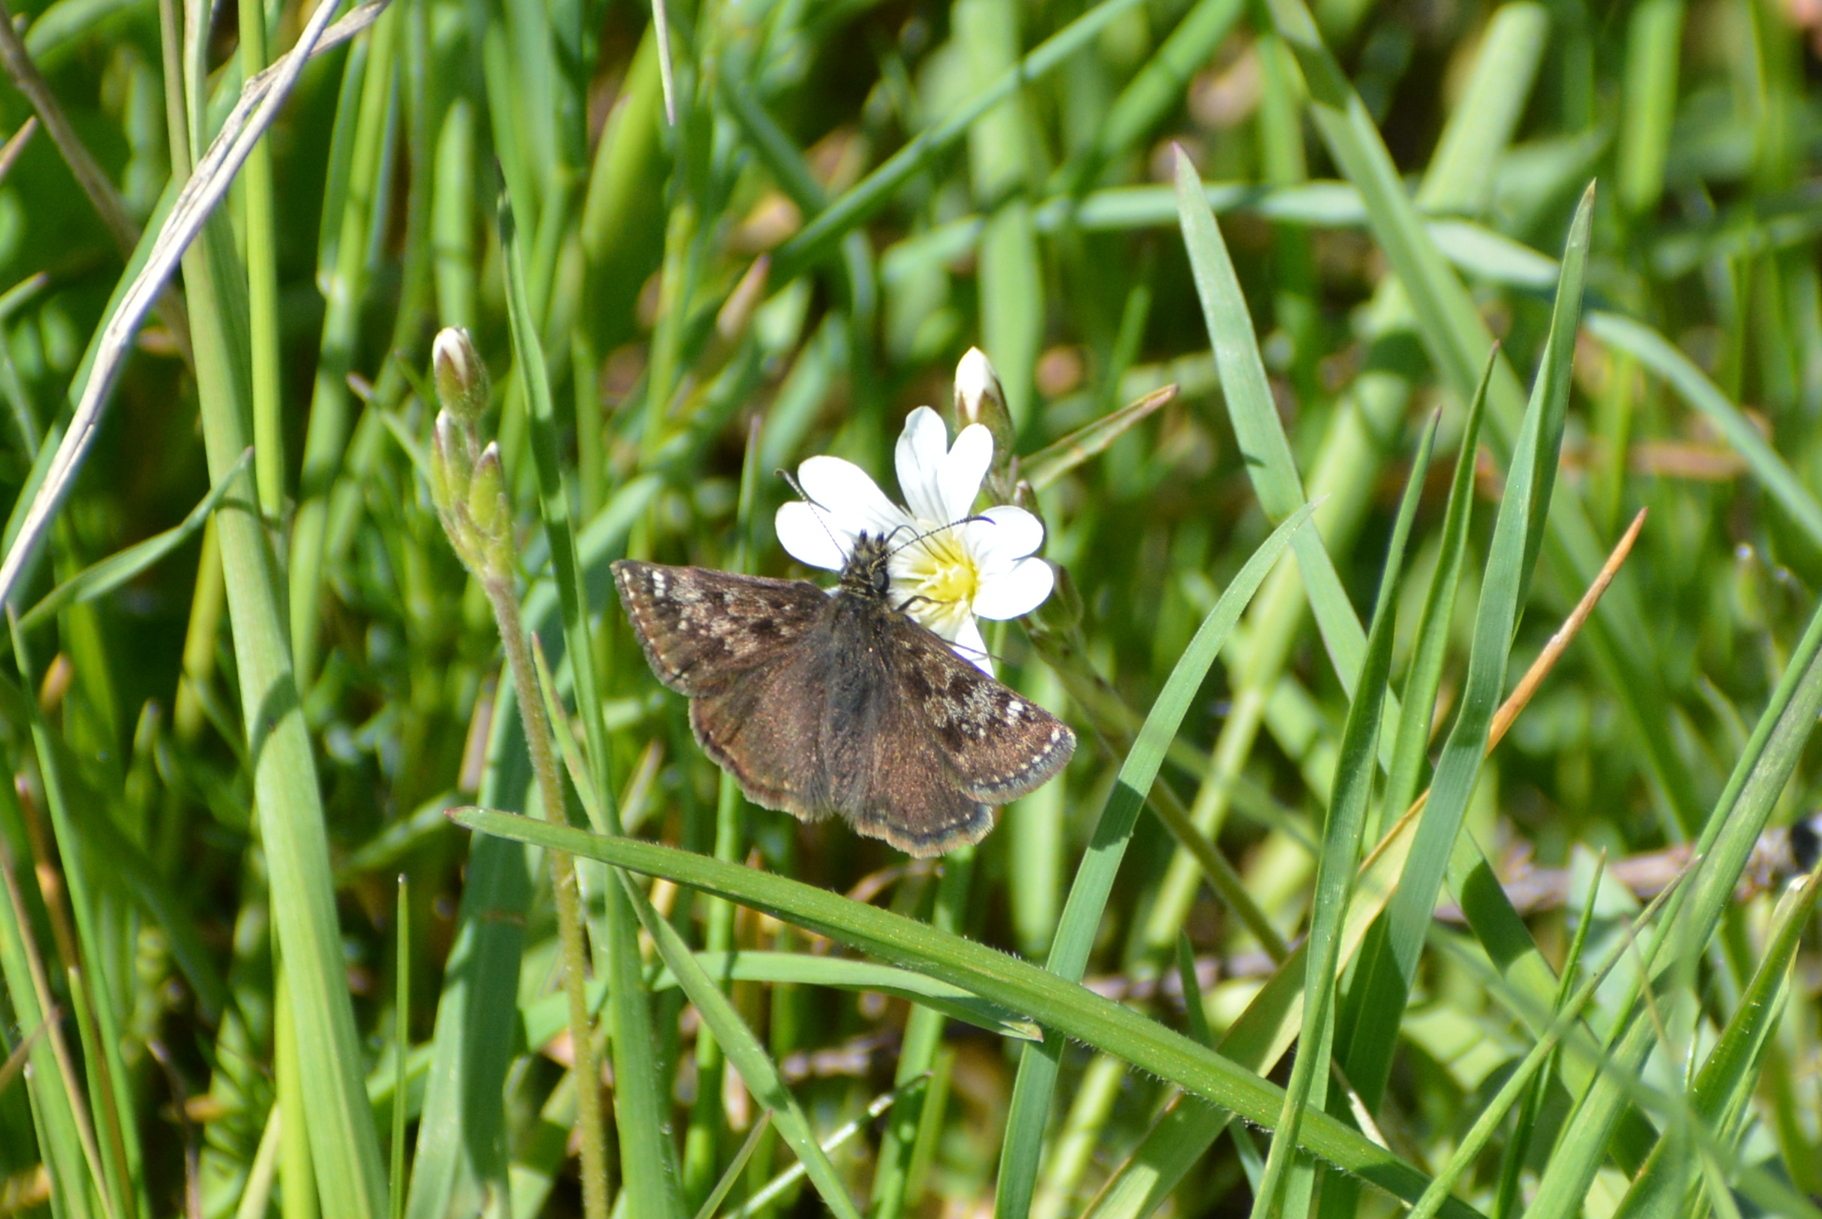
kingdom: Animalia
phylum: Arthropoda
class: Insecta
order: Lepidoptera
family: Hesperiidae
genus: Erynnis
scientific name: Erynnis tages
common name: Dingy skipper
